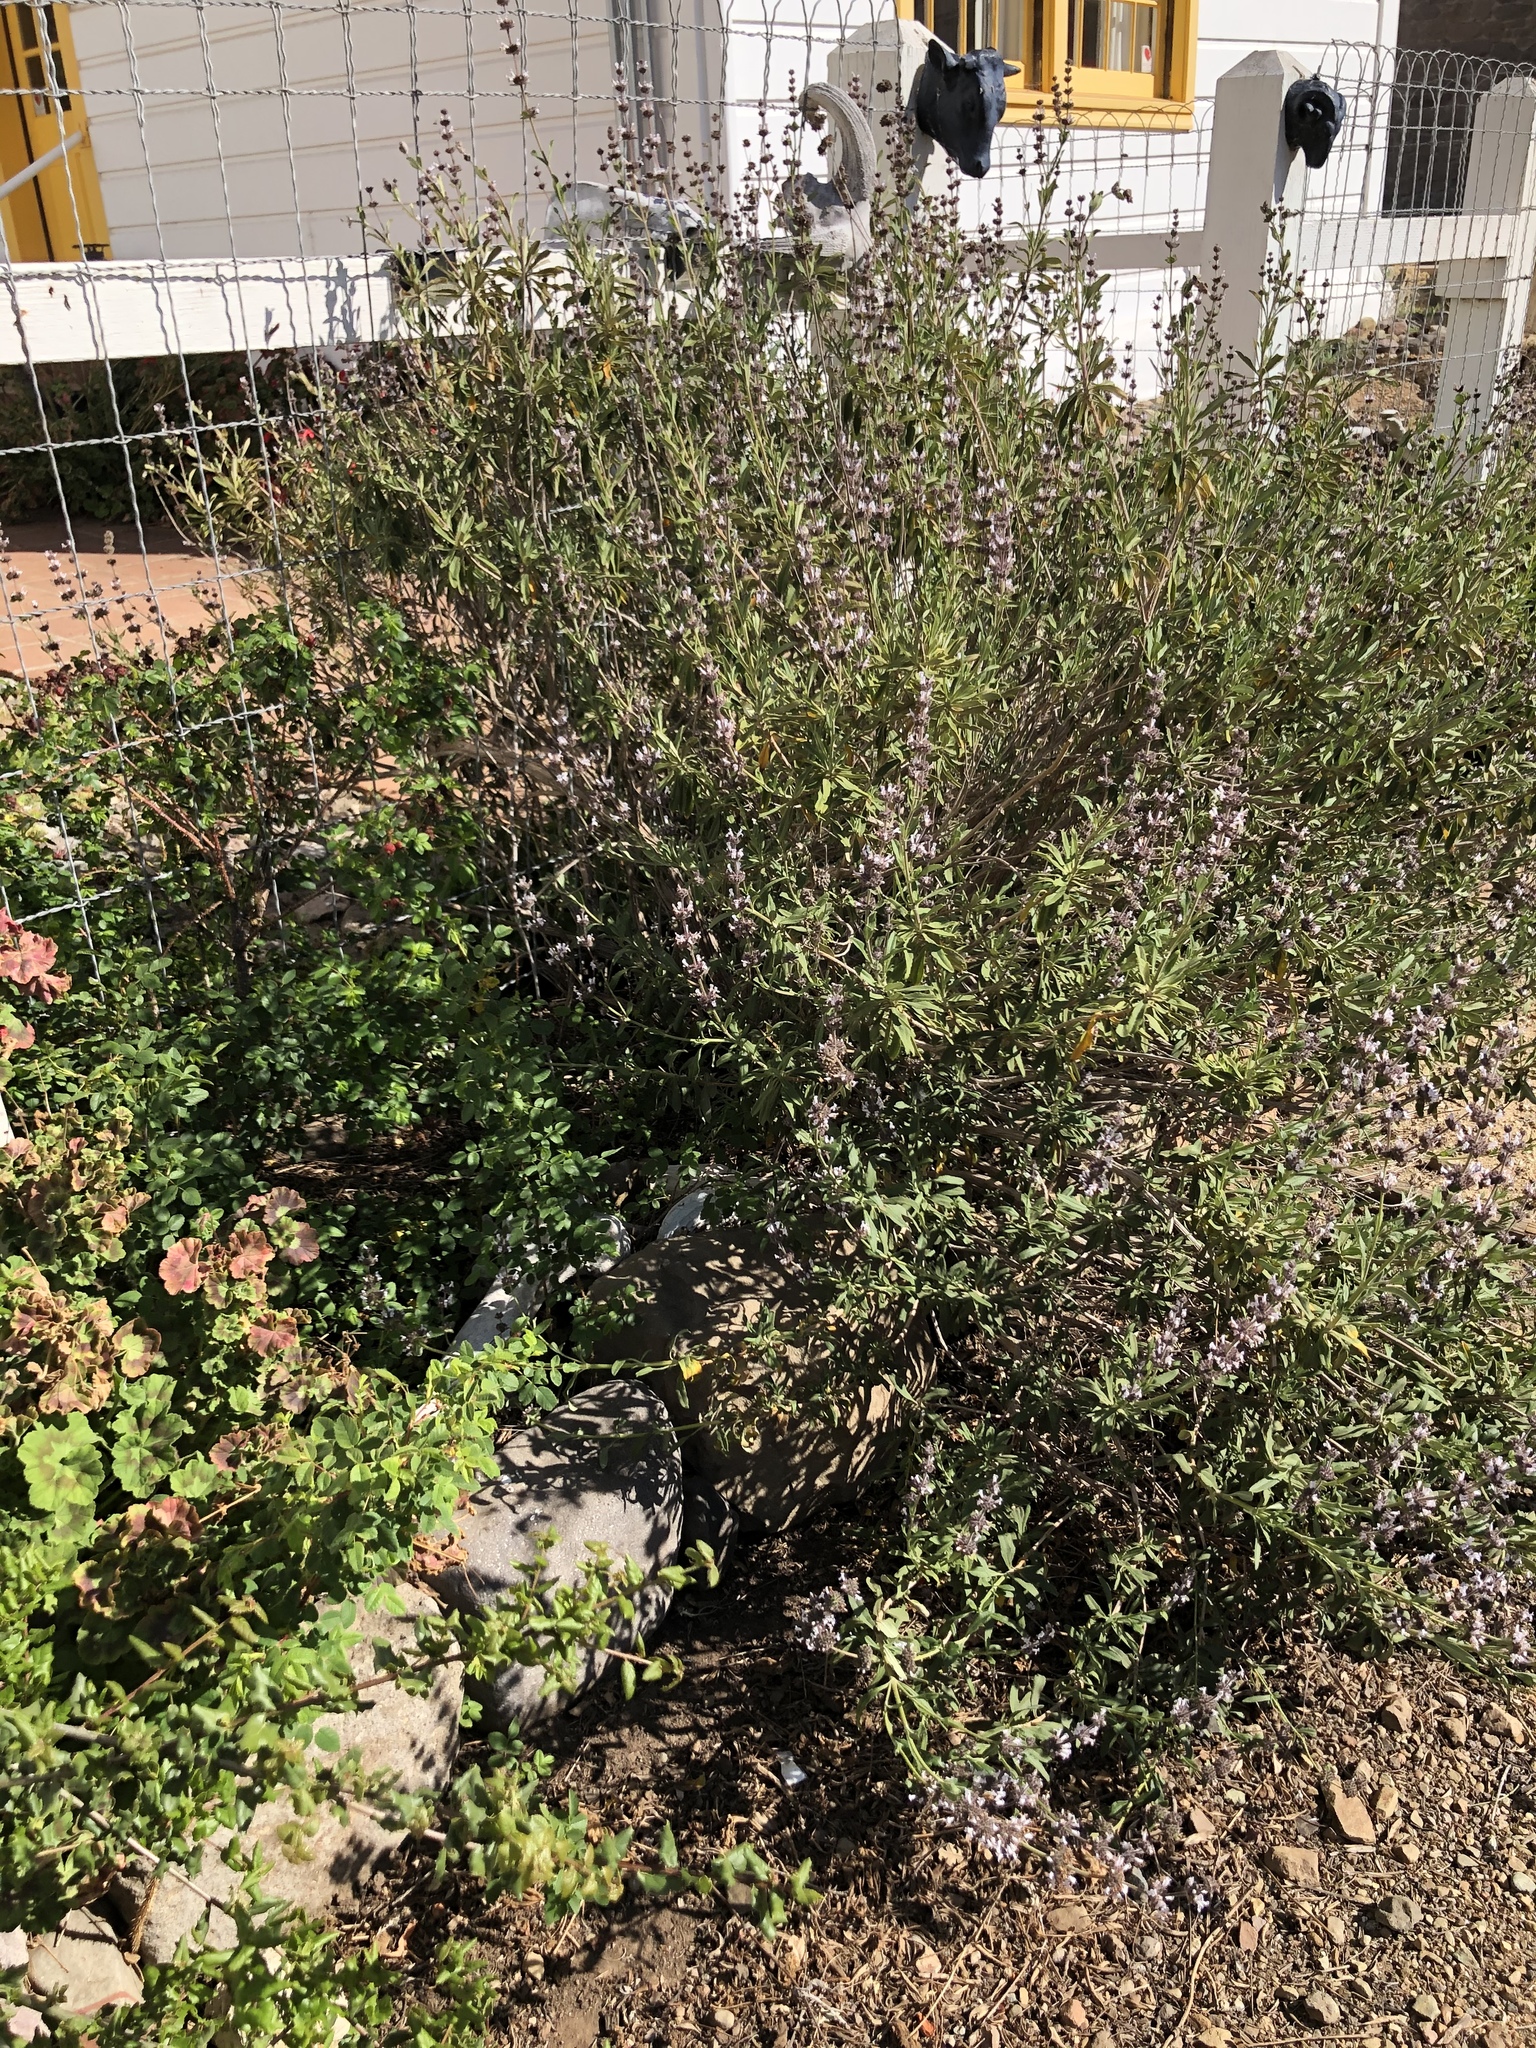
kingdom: Plantae
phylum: Tracheophyta
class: Magnoliopsida
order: Lamiales
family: Lamiaceae
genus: Salvia
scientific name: Salvia mellifera
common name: Black sage
